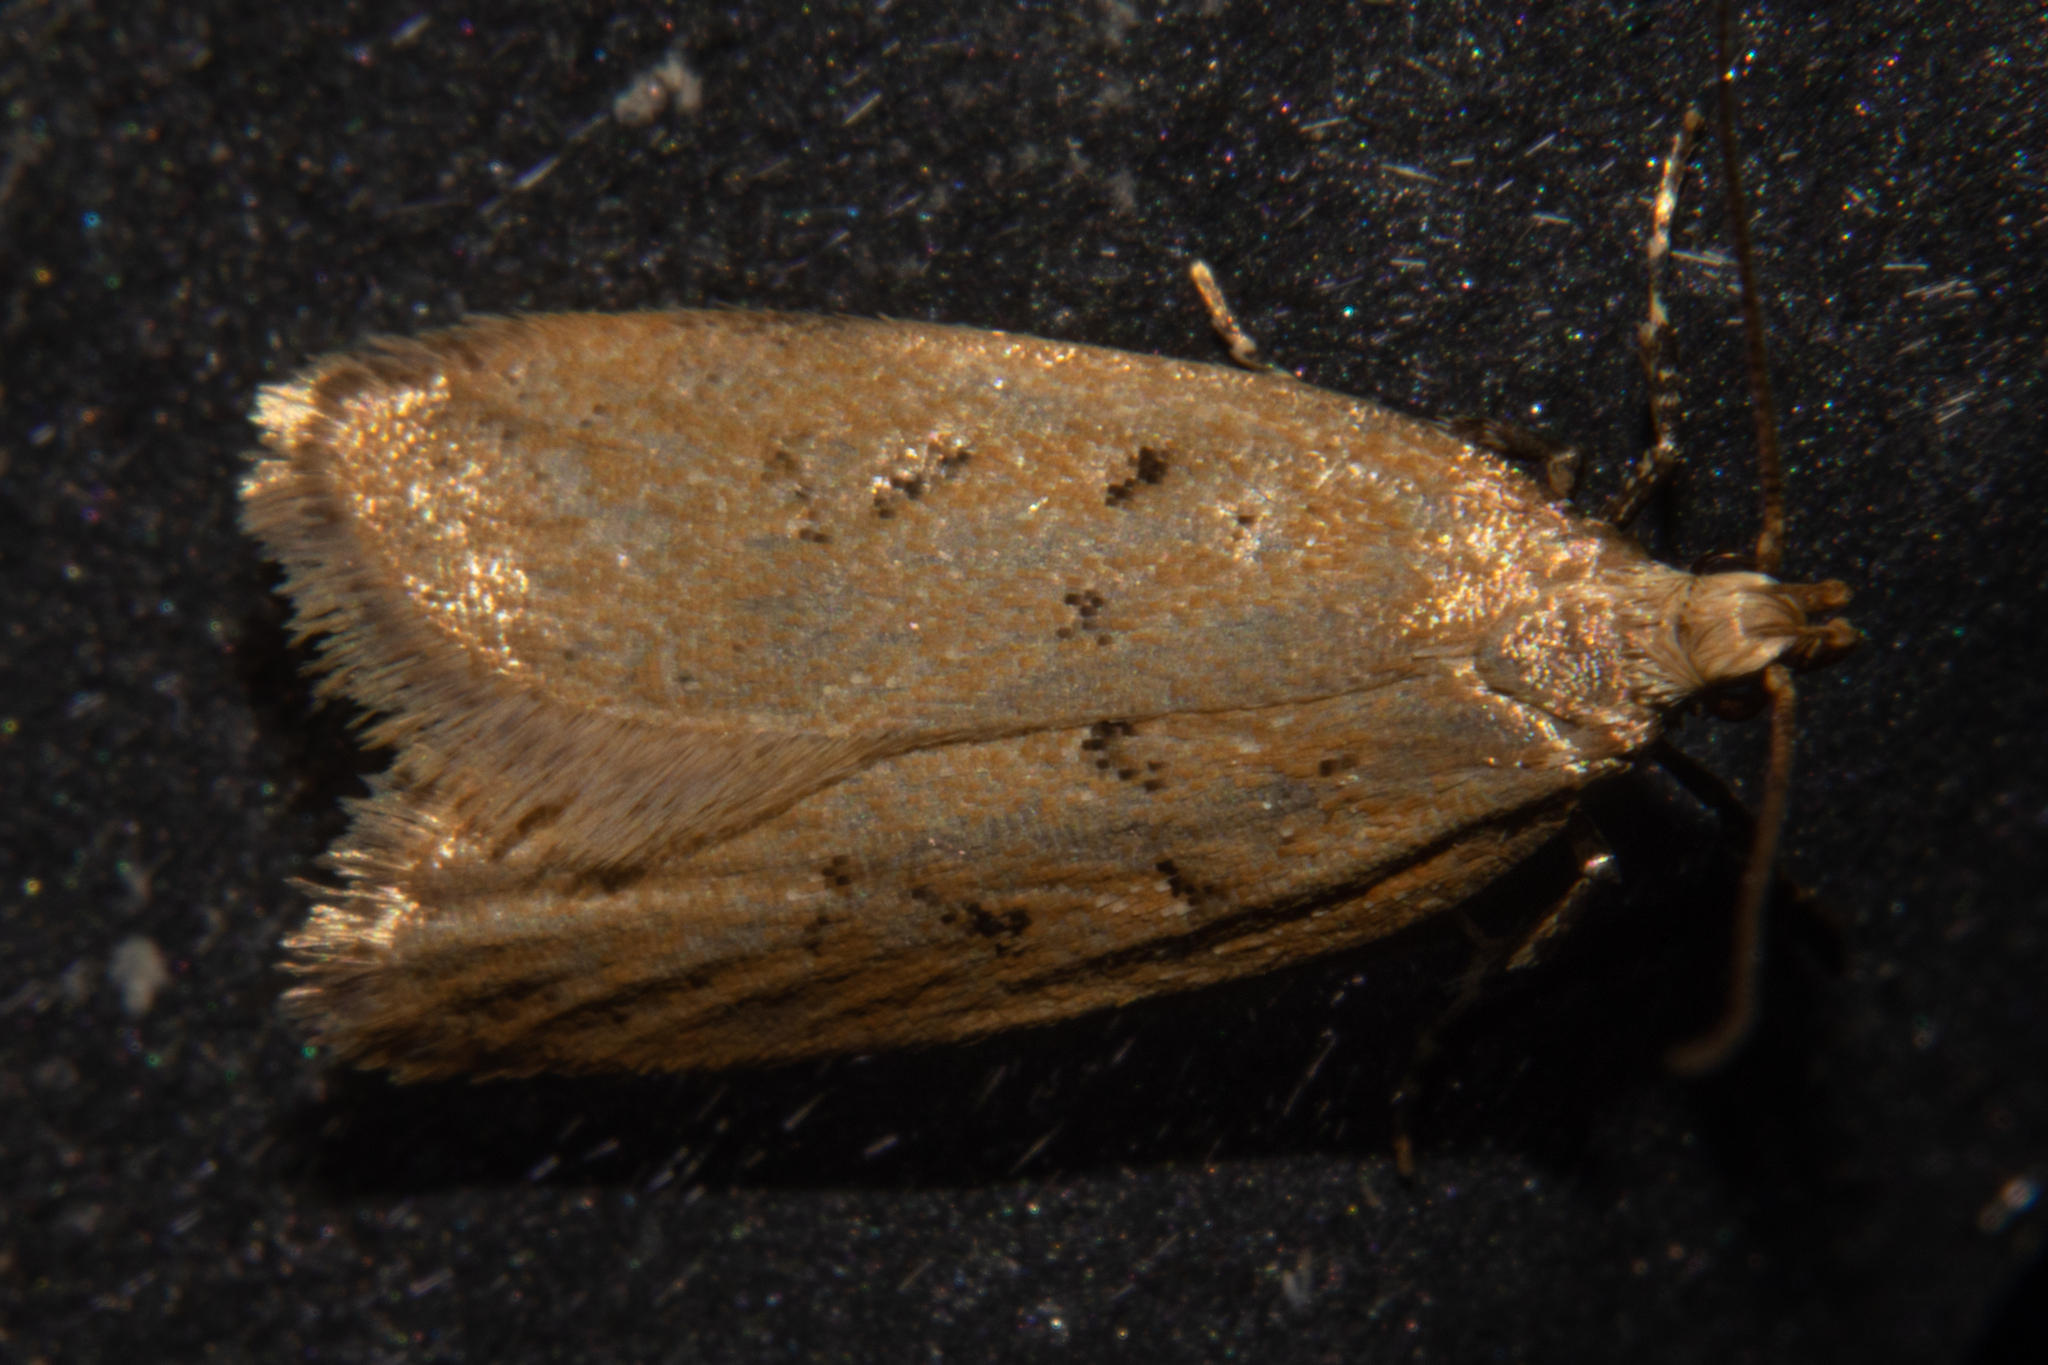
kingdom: Animalia
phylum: Arthropoda
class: Insecta
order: Lepidoptera
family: Oecophoridae
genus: Thamnosara
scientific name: Thamnosara sublitella
